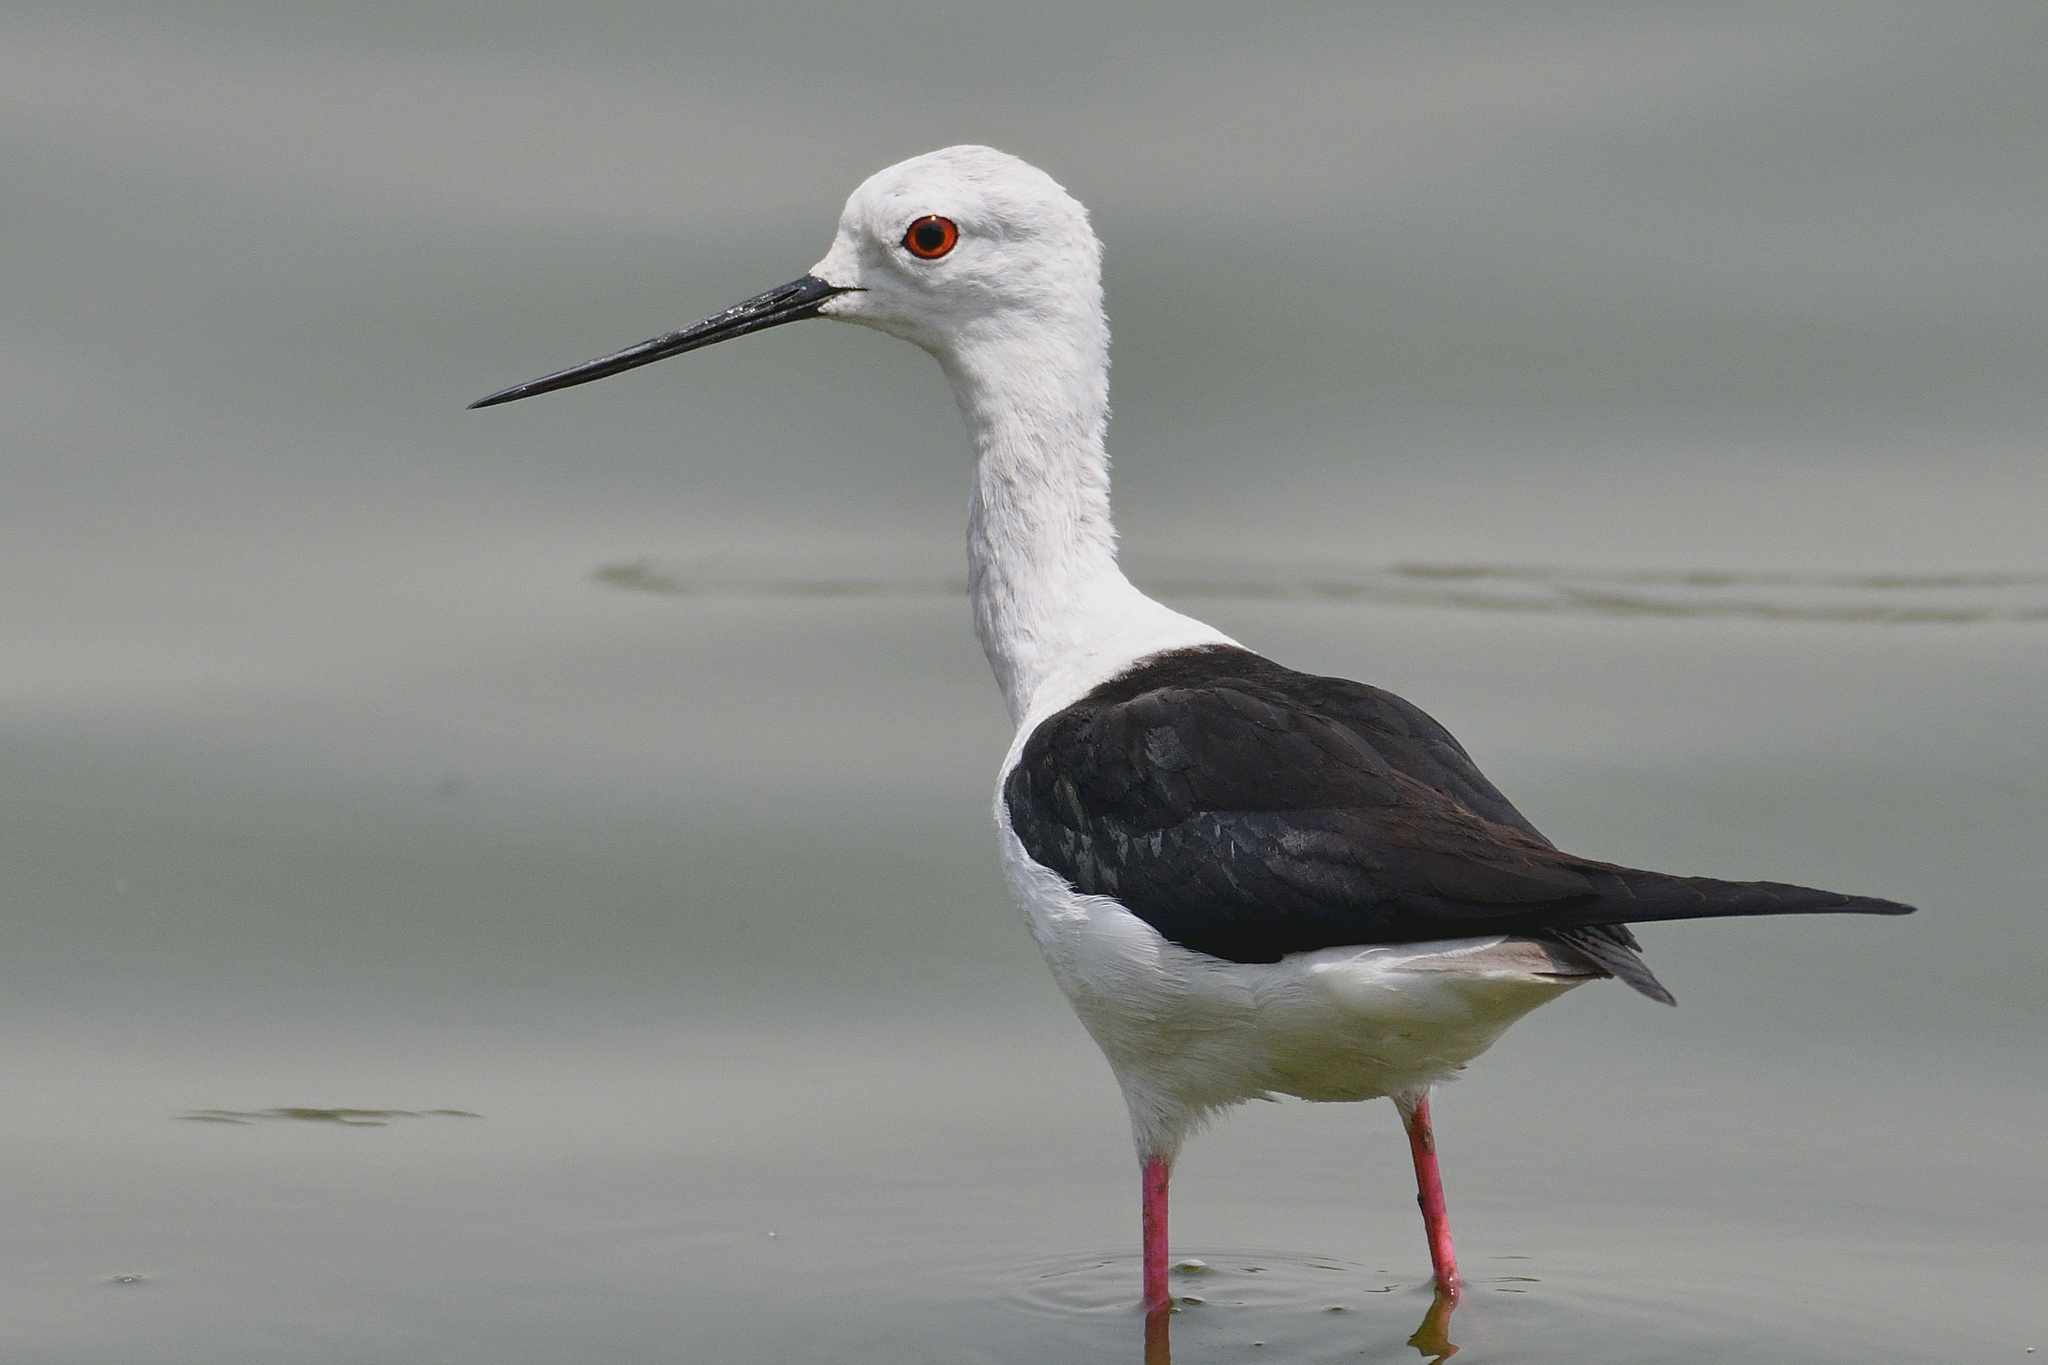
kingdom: Animalia
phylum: Chordata
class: Aves
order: Charadriiformes
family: Recurvirostridae
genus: Himantopus
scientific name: Himantopus himantopus
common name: Black-winged stilt
